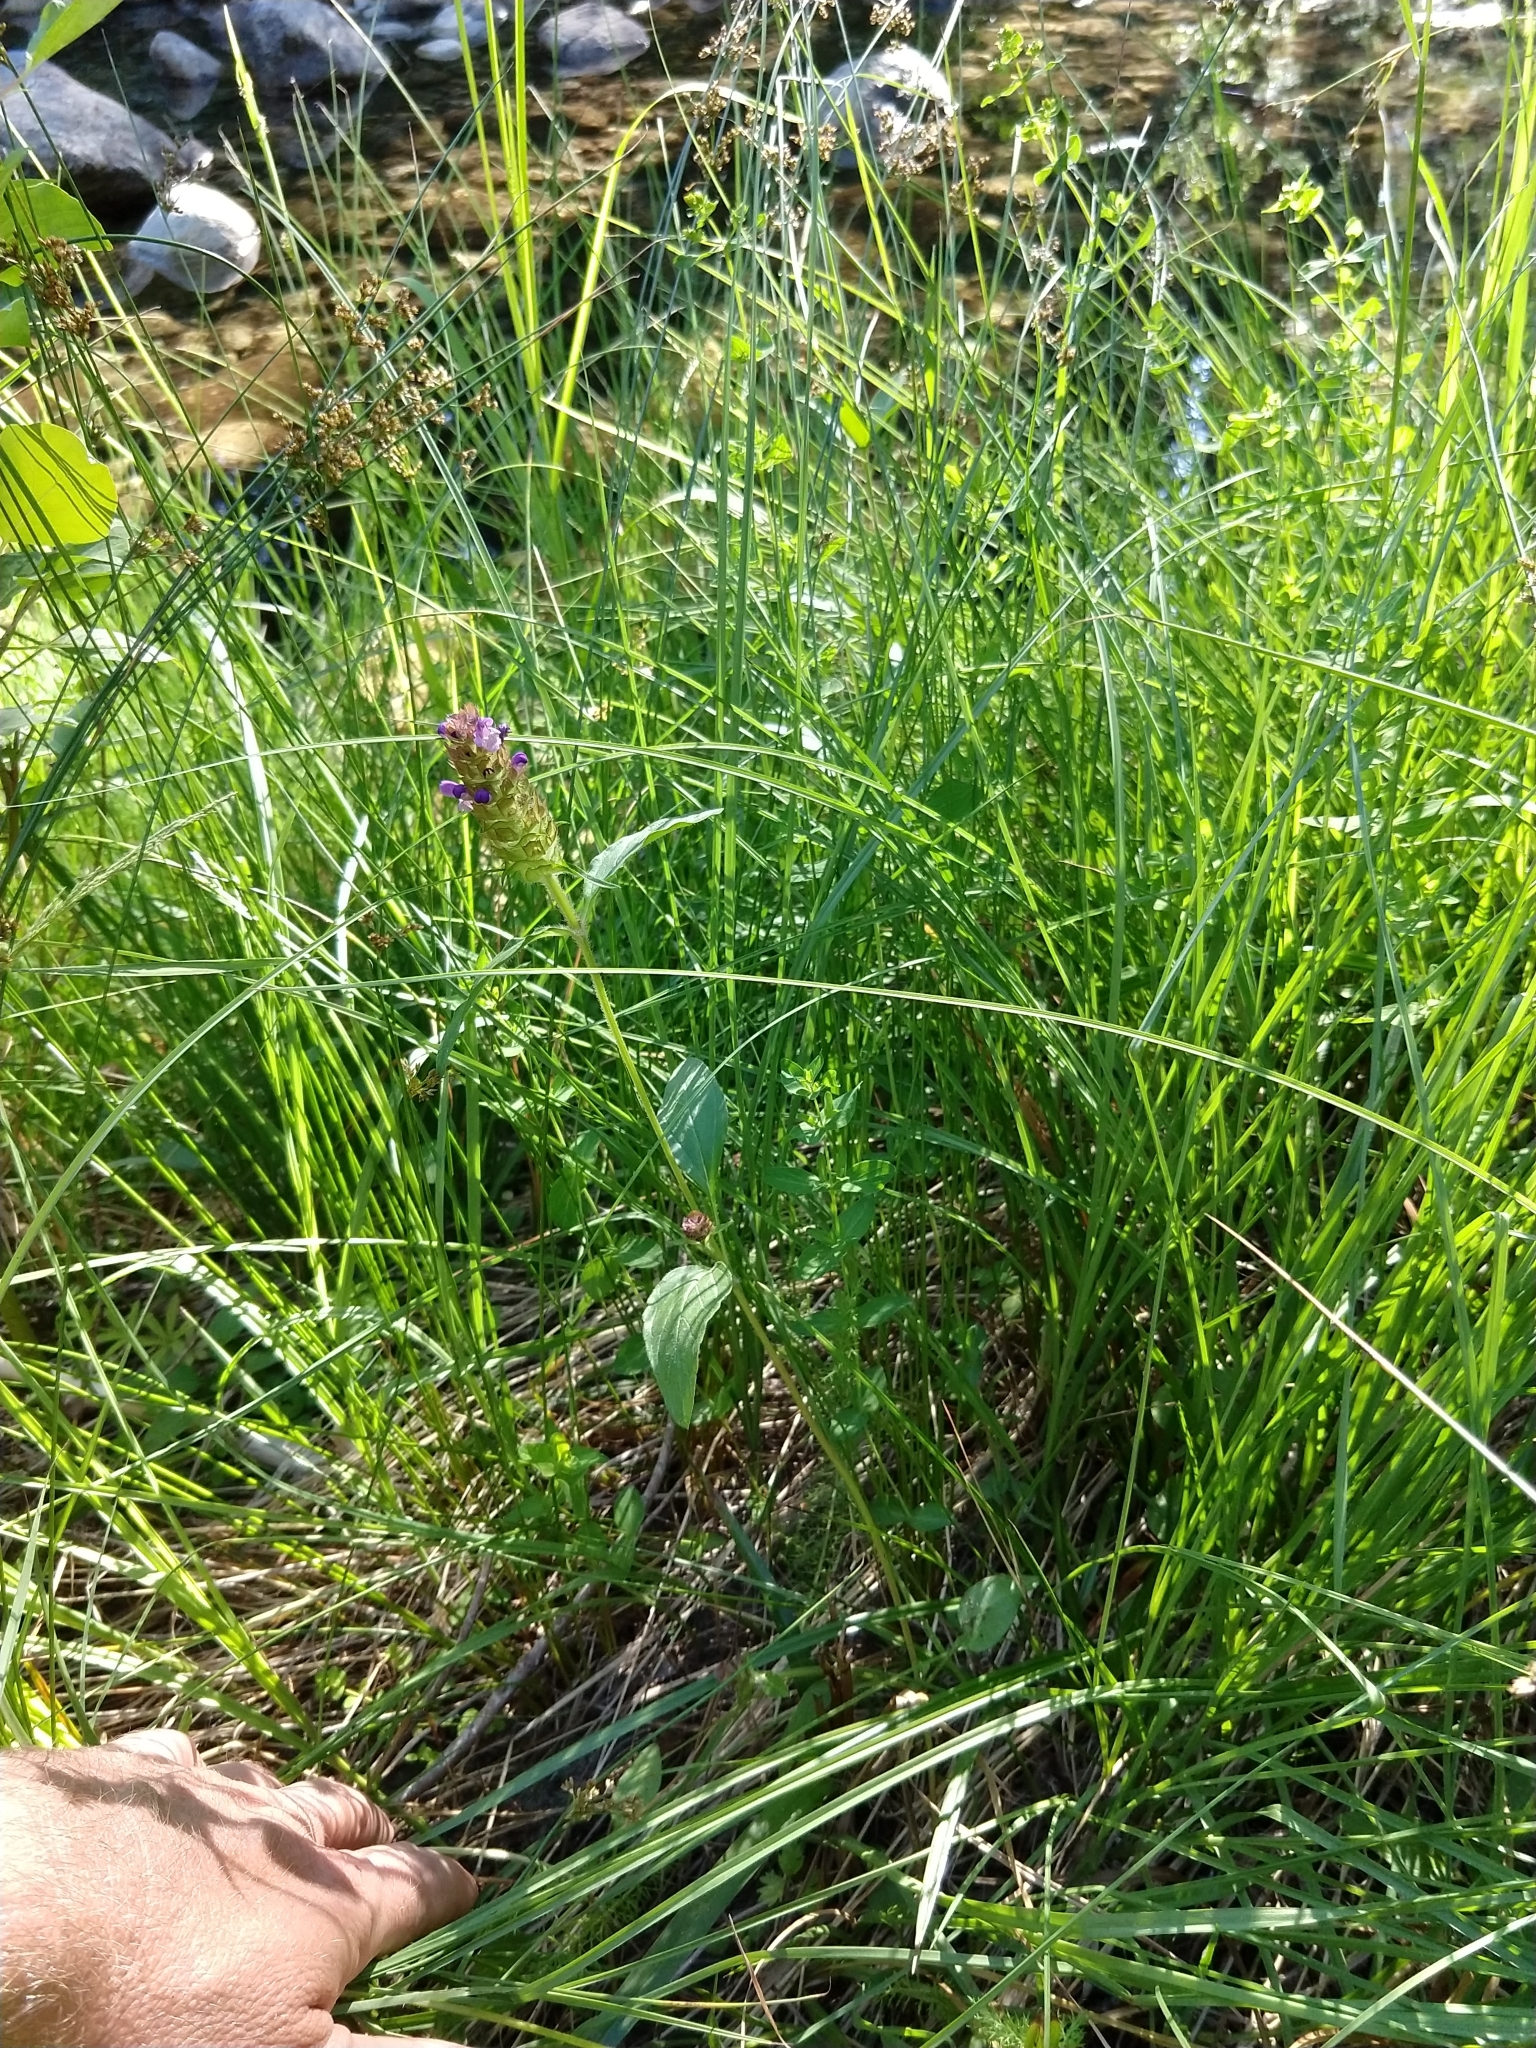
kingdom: Plantae
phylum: Tracheophyta
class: Magnoliopsida
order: Lamiales
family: Lamiaceae
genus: Prunella
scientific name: Prunella vulgaris
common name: Heal-all
